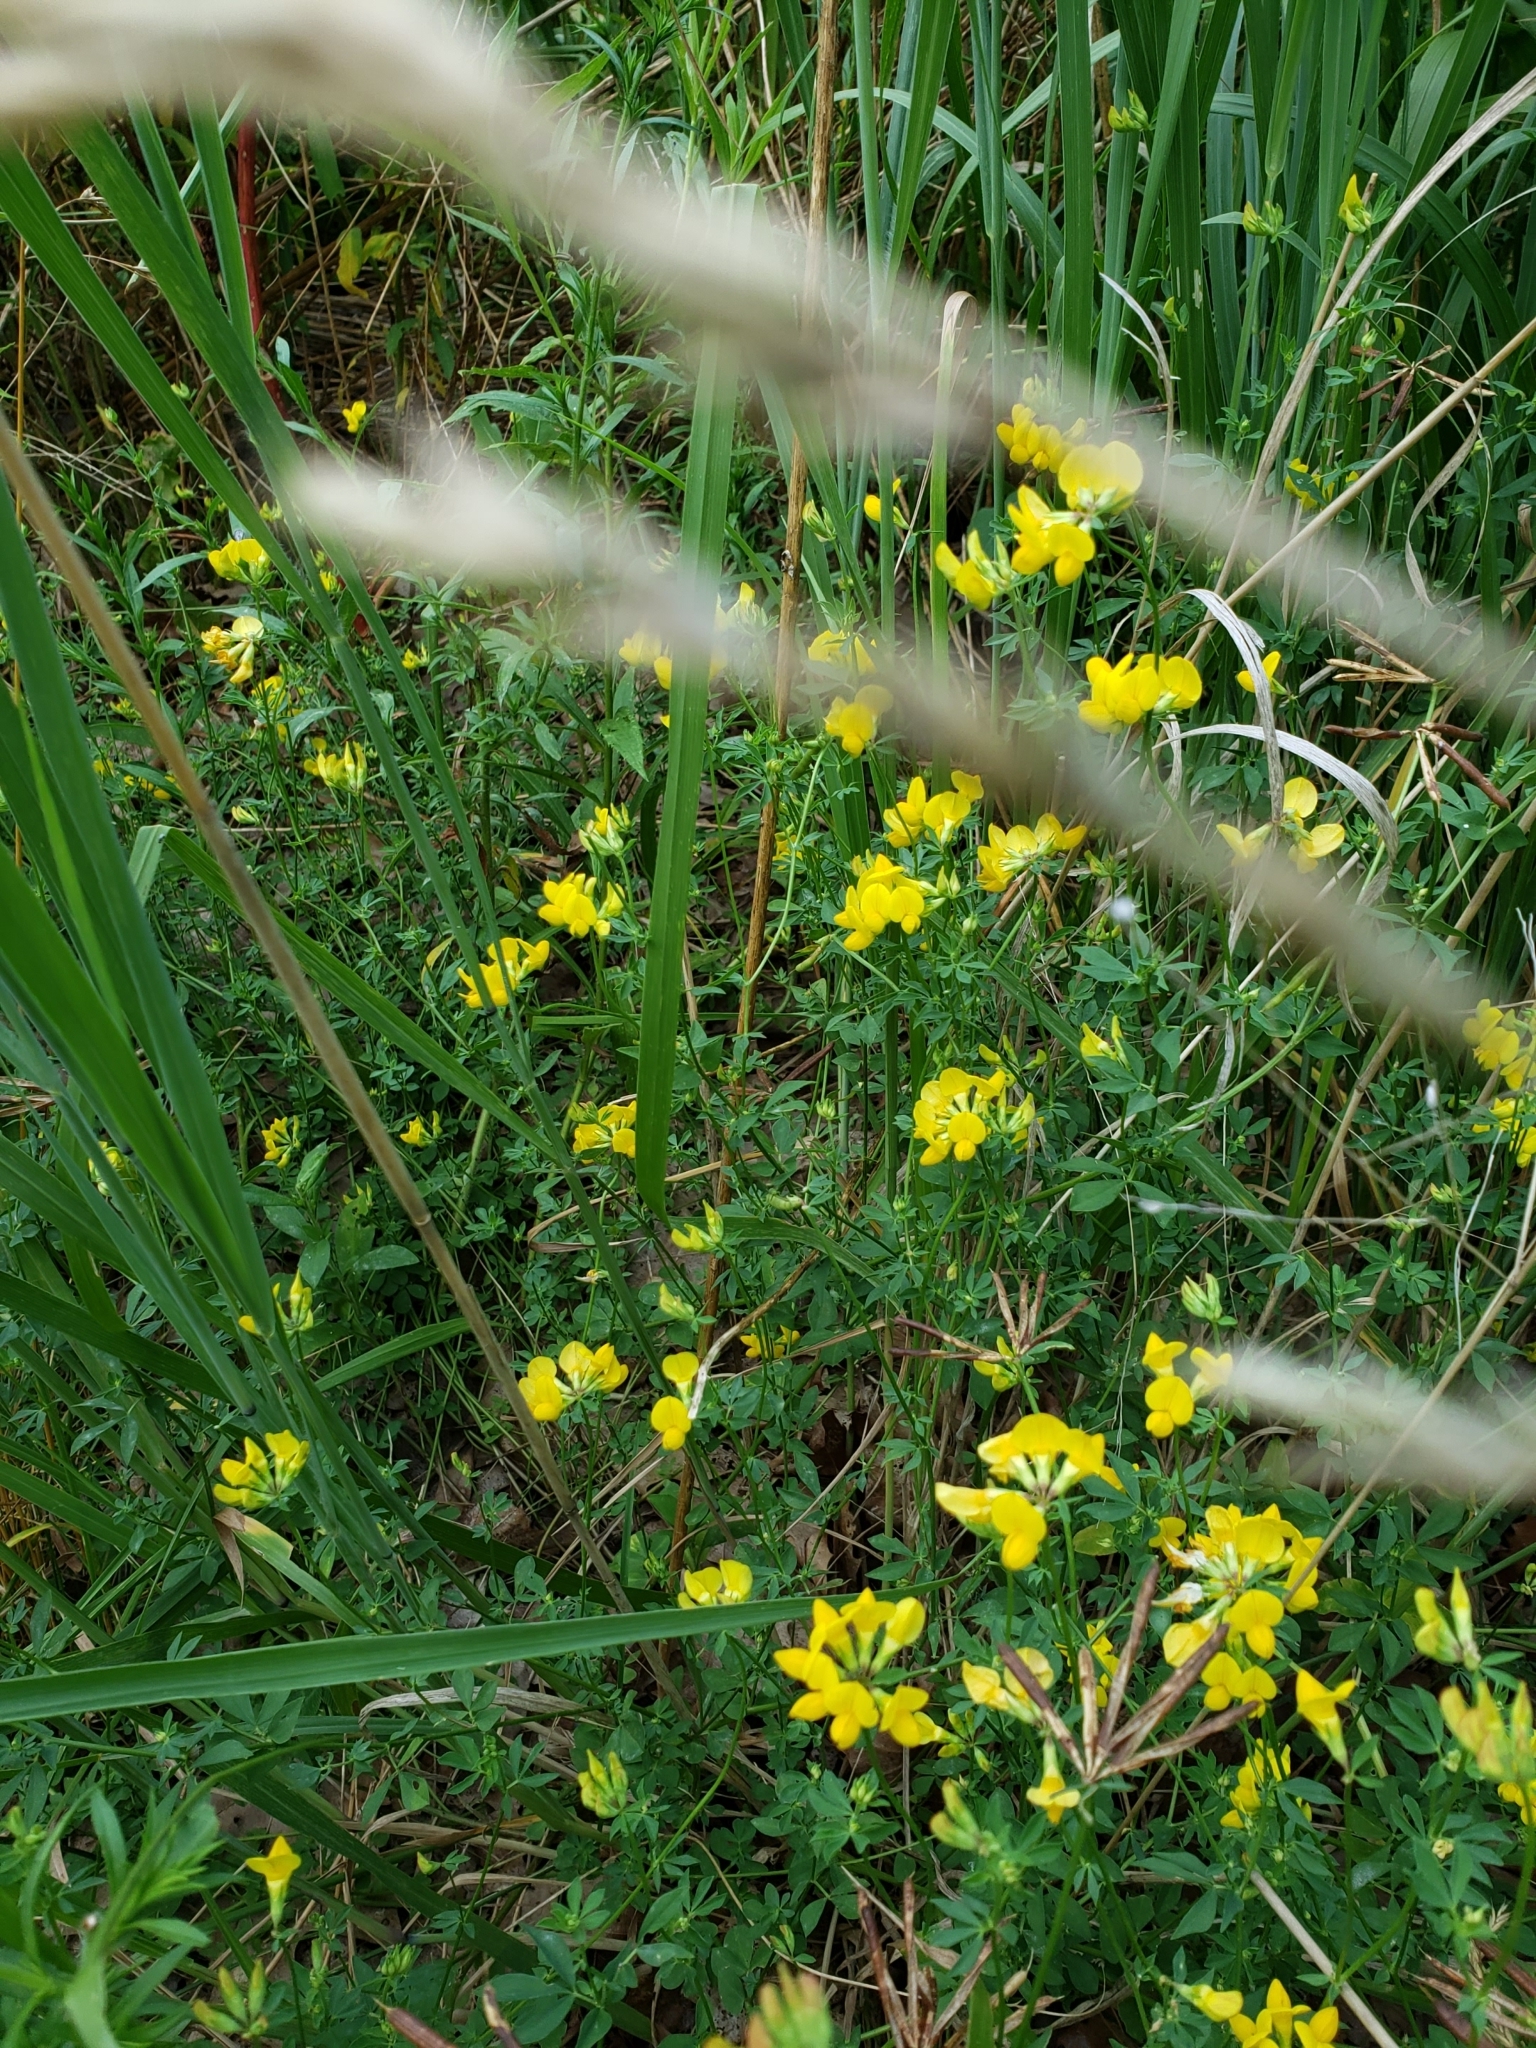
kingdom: Plantae
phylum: Tracheophyta
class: Magnoliopsida
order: Fabales
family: Fabaceae
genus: Lotus
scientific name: Lotus corniculatus
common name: Common bird's-foot-trefoil
